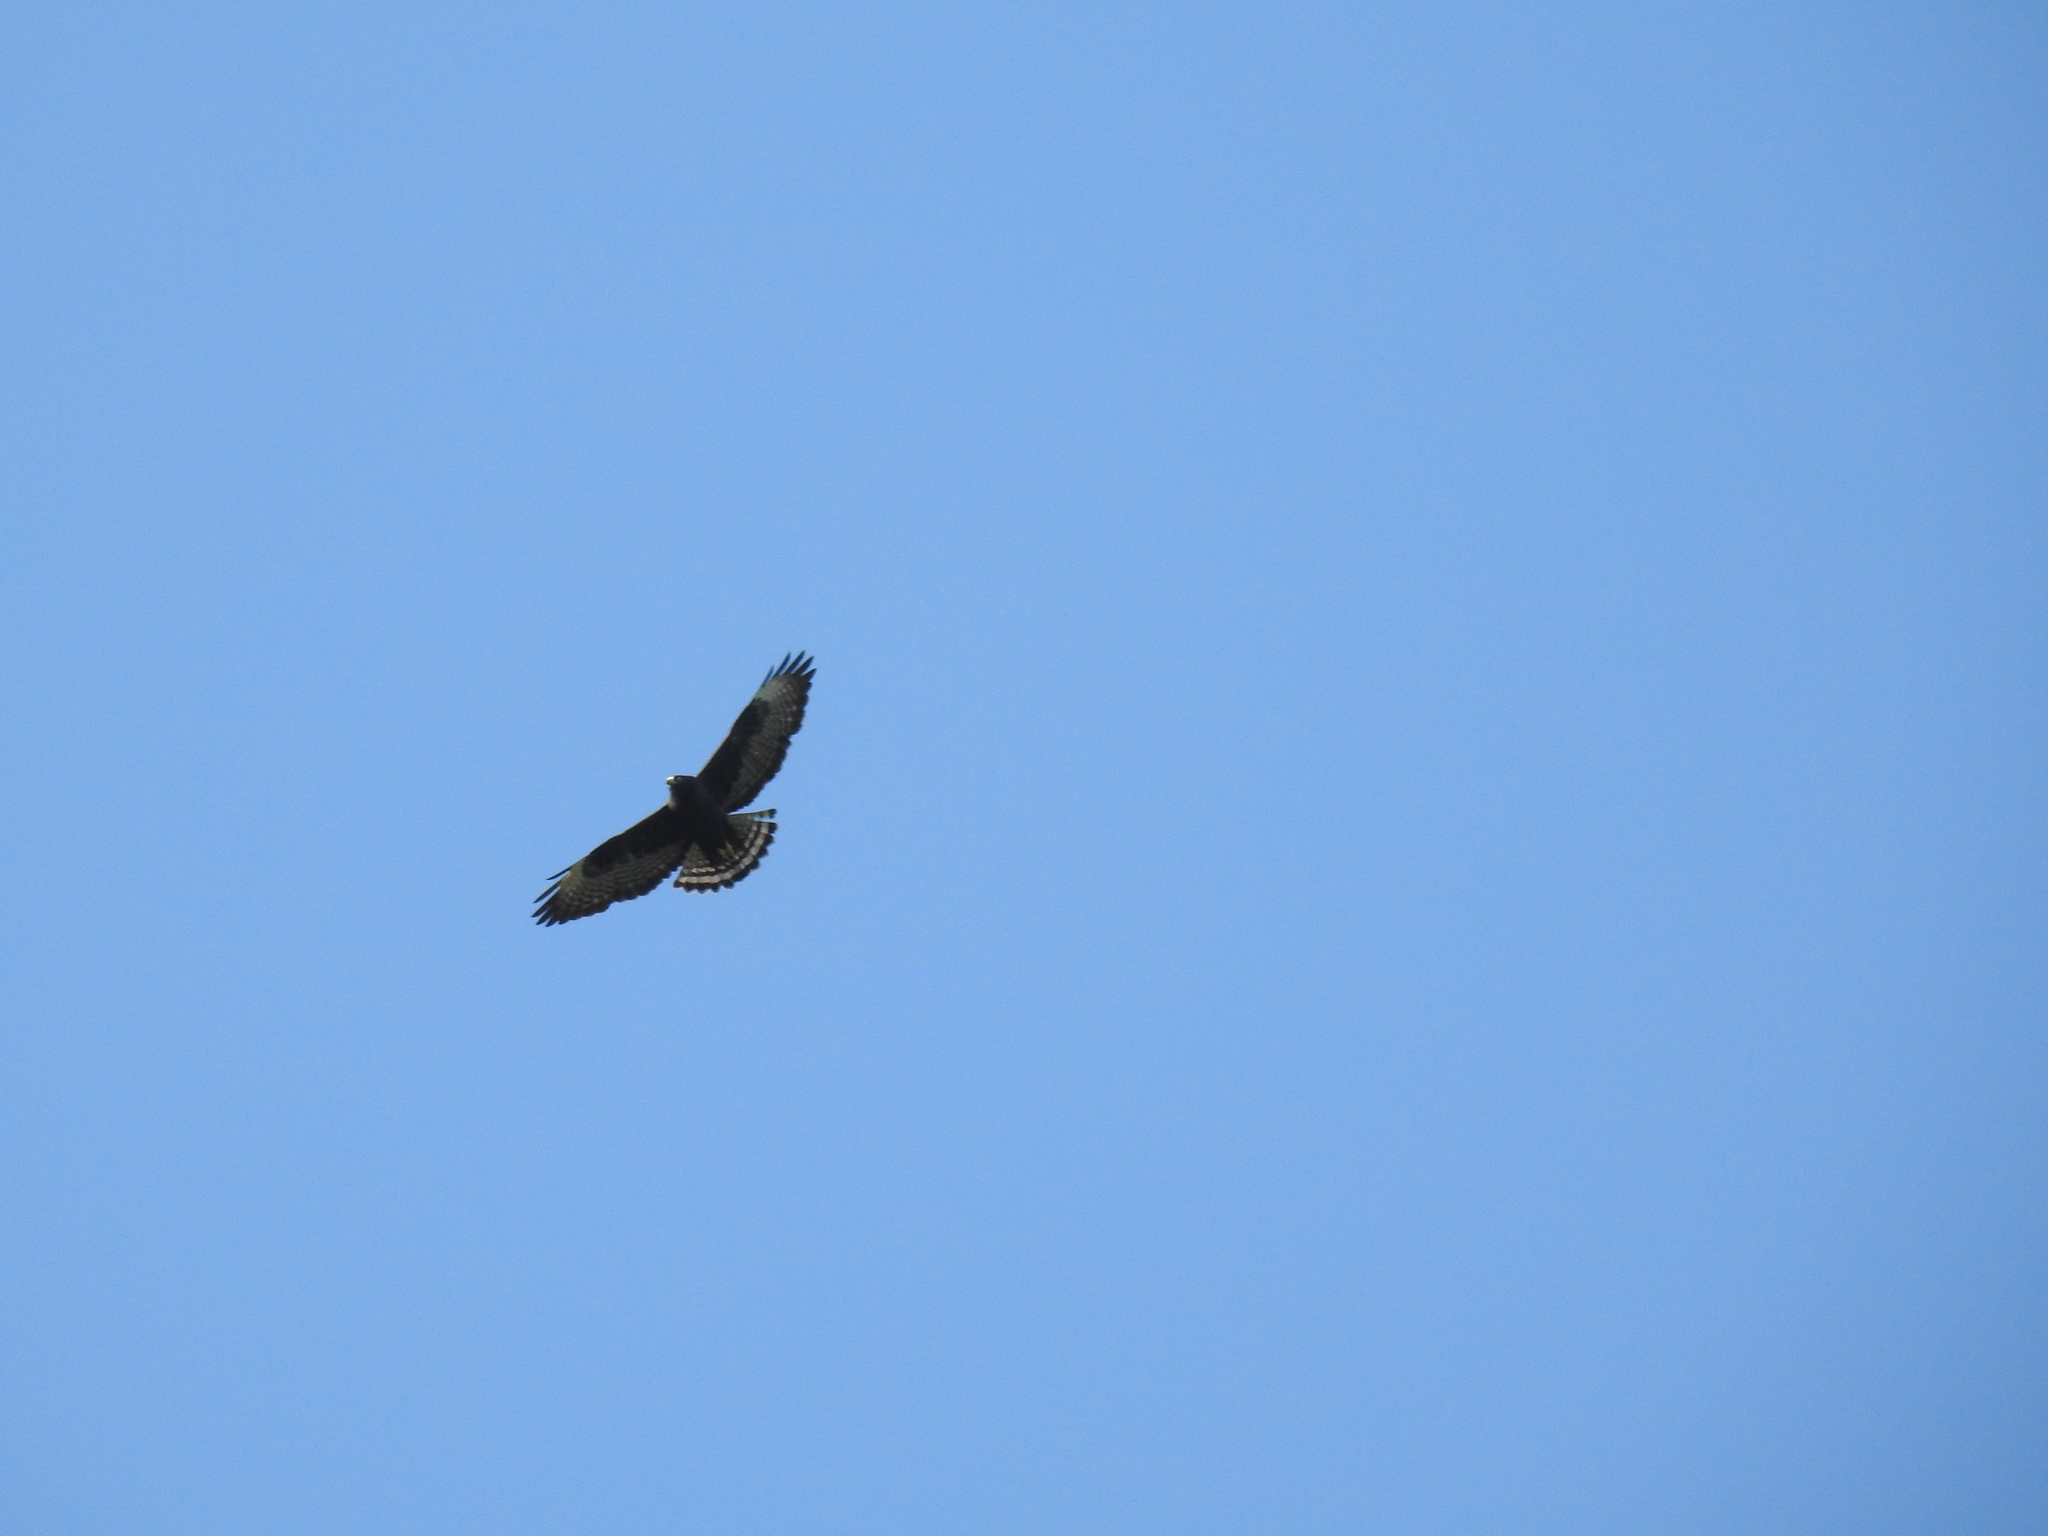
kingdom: Animalia
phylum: Chordata
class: Aves
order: Accipitriformes
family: Accipitridae
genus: Buteo
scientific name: Buteo brachyurus
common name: Short-tailed hawk
